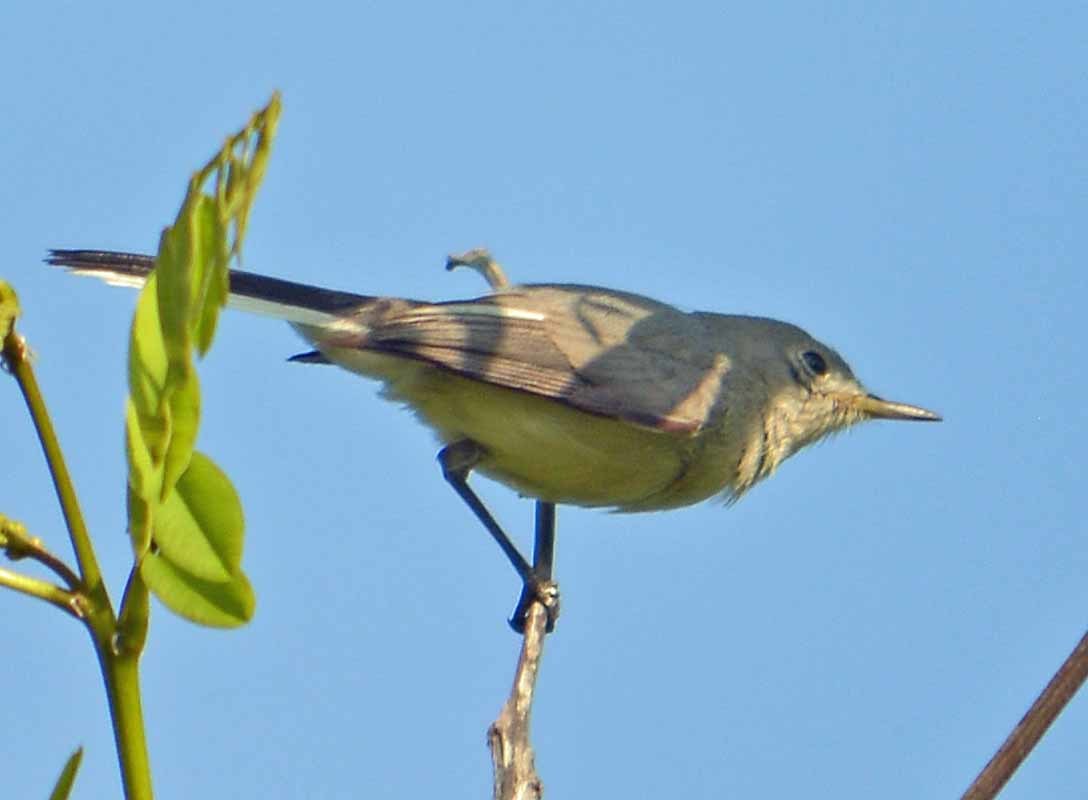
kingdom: Animalia
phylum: Chordata
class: Aves
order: Passeriformes
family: Polioptilidae
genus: Polioptila
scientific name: Polioptila caerulea
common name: Blue-gray gnatcatcher
